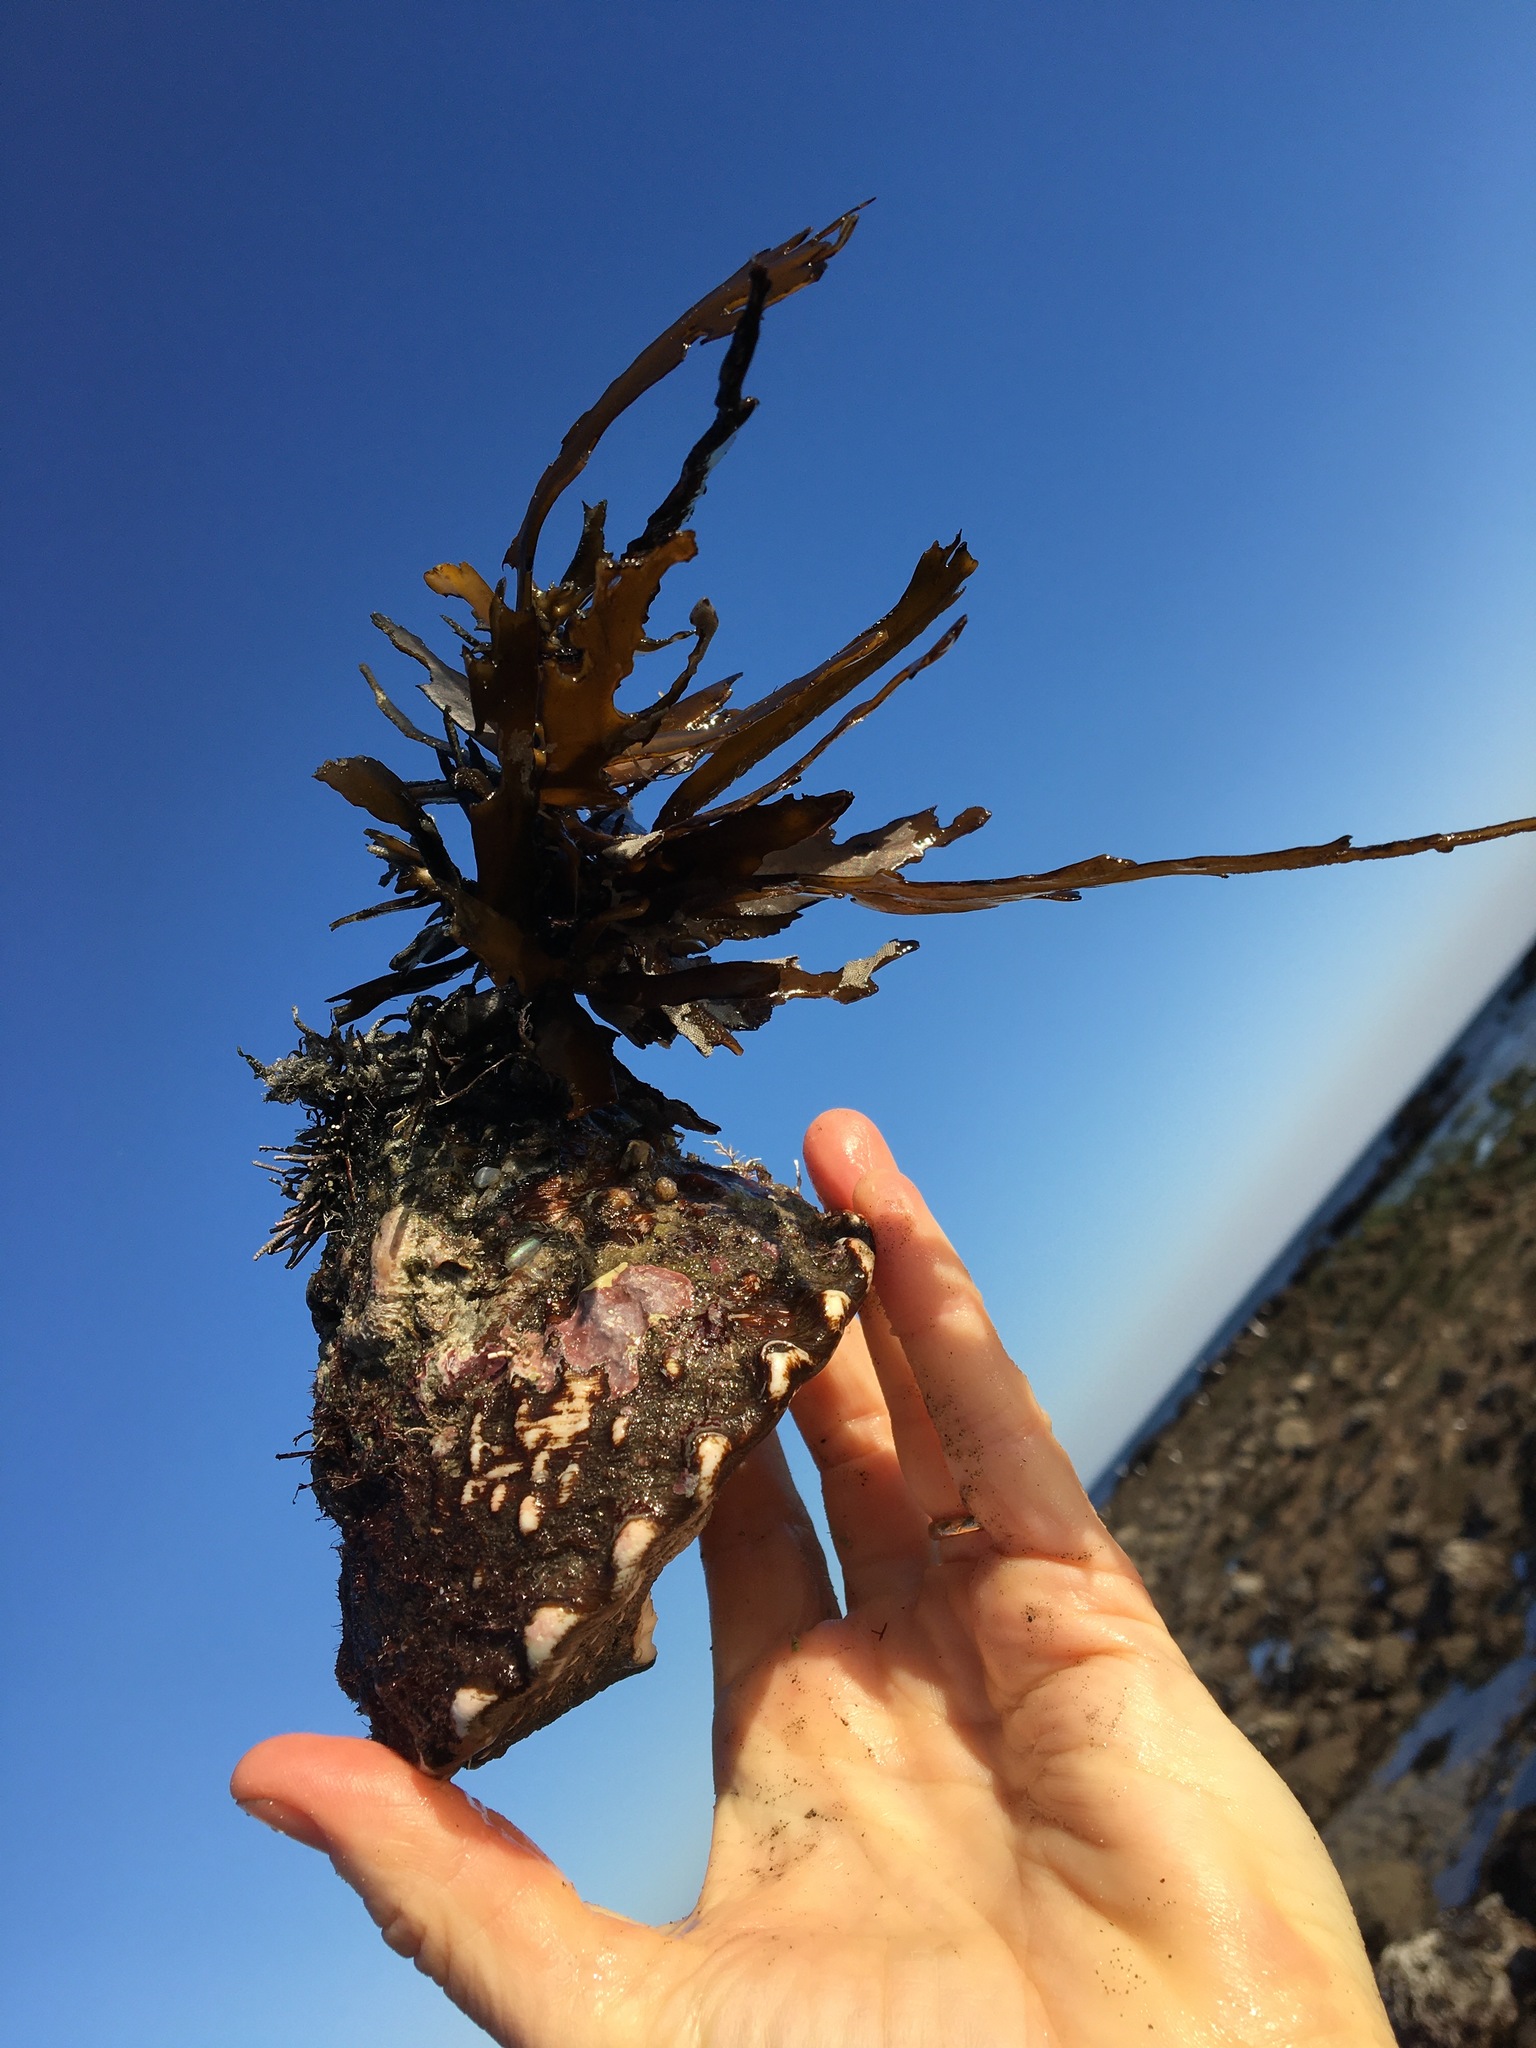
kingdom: Animalia
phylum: Mollusca
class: Gastropoda
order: Trochida
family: Turbinidae
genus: Megastraea
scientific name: Megastraea undosa
